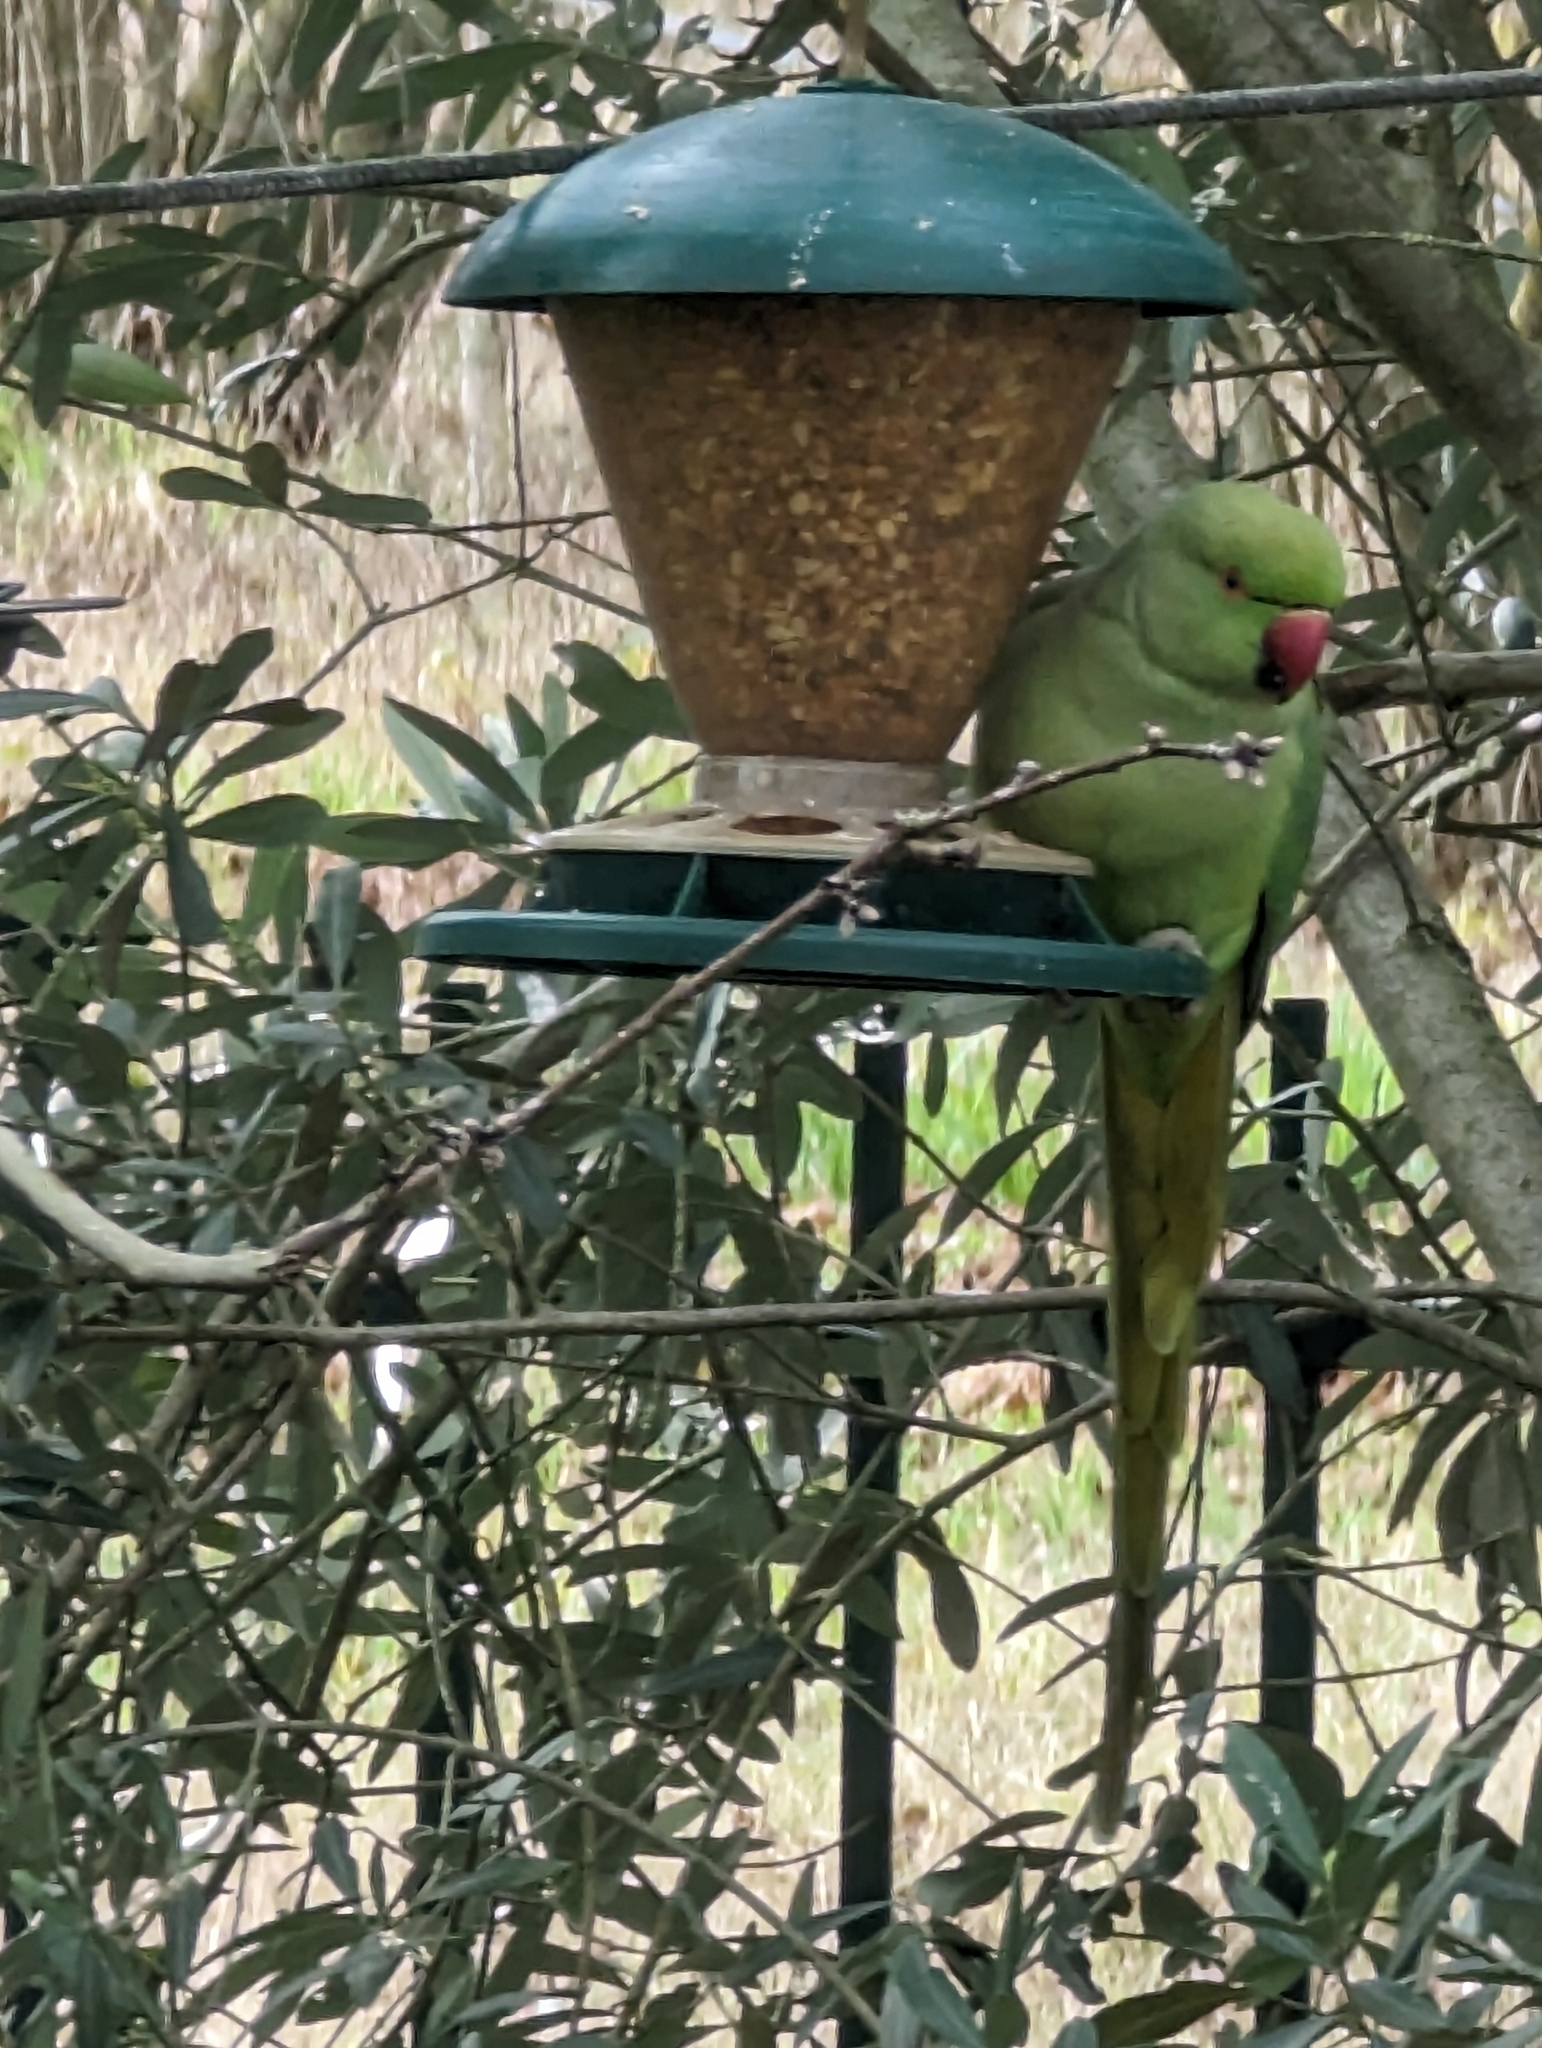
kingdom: Animalia
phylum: Chordata
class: Aves
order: Psittaciformes
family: Psittacidae
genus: Psittacula
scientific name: Psittacula krameri
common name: Rose-ringed parakeet
